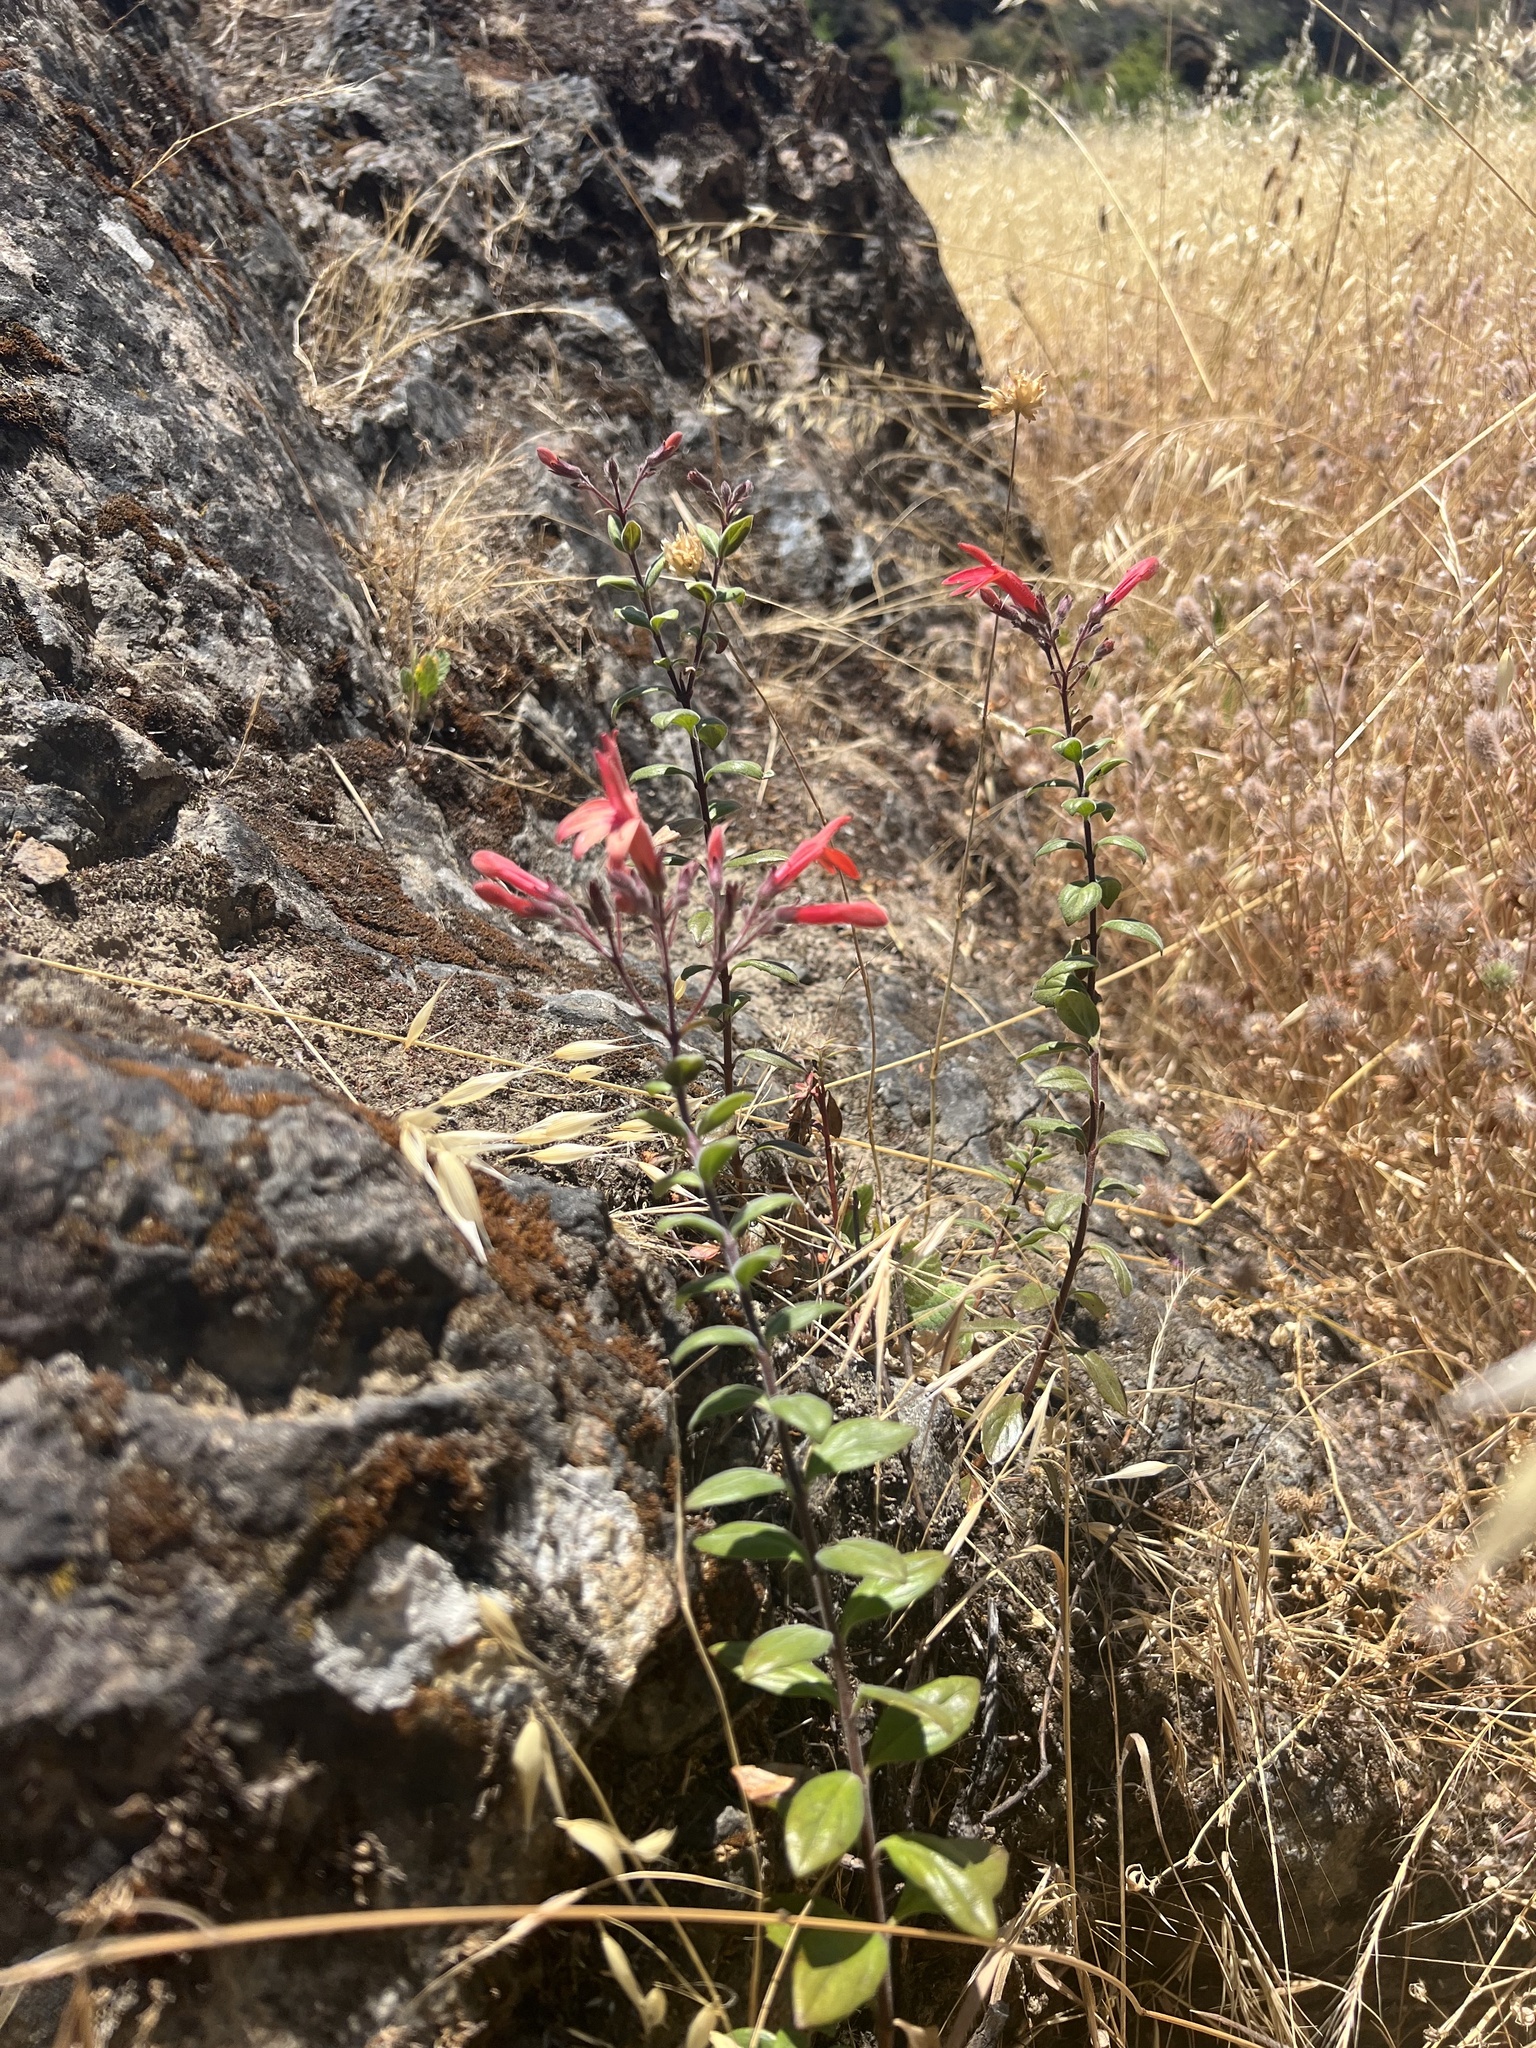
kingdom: Plantae
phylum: Tracheophyta
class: Magnoliopsida
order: Lamiales
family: Plantaginaceae
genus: Keckiella
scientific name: Keckiella corymbosa
